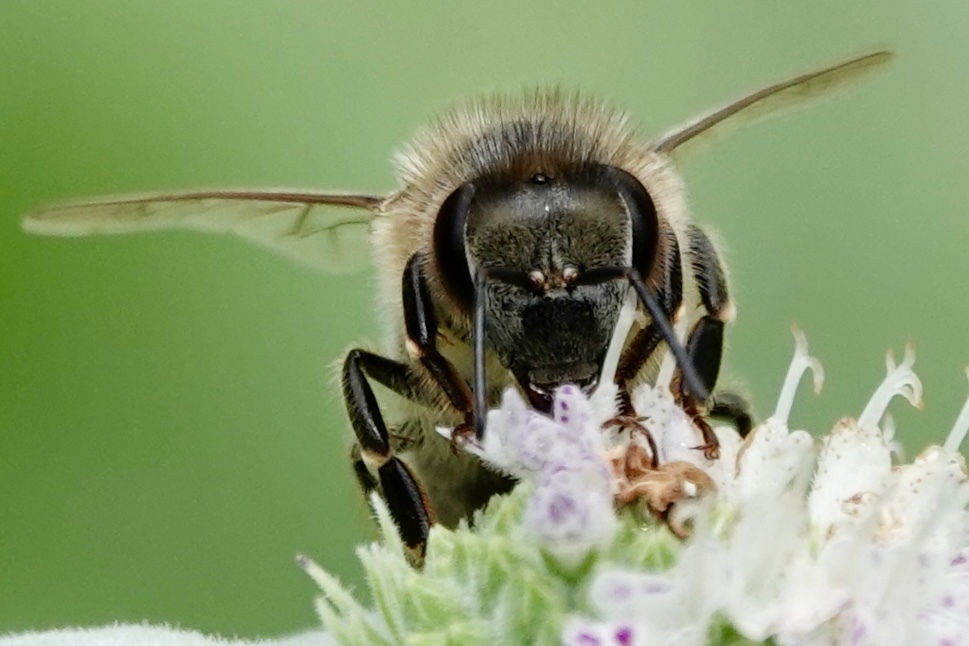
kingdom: Animalia
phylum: Arthropoda
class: Insecta
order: Hymenoptera
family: Apidae
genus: Apis
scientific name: Apis mellifera
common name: Honey bee
